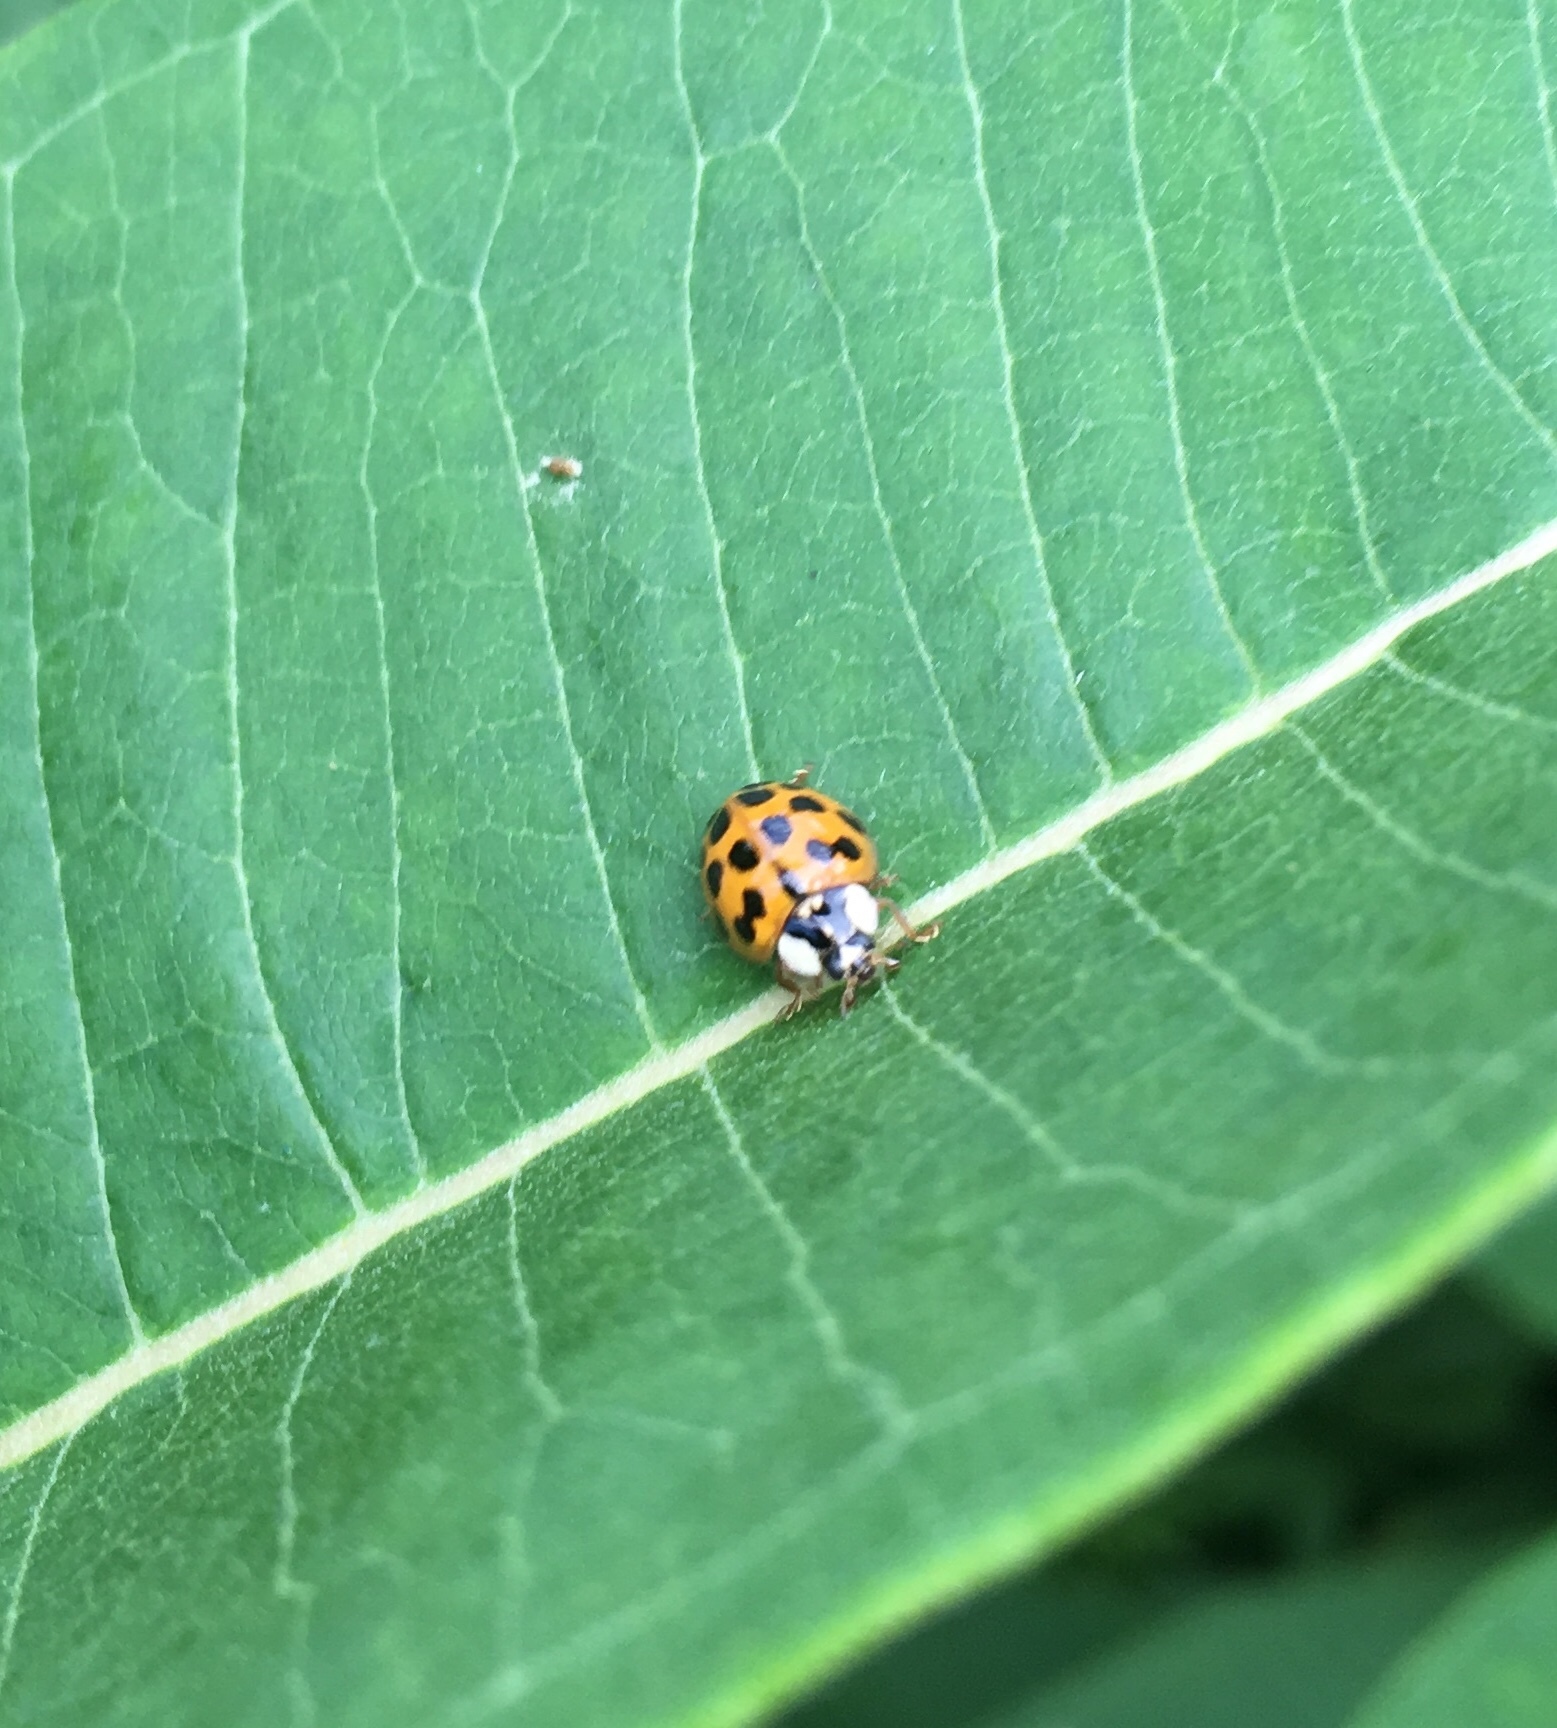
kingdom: Animalia
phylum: Arthropoda
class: Insecta
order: Coleoptera
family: Coccinellidae
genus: Harmonia
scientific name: Harmonia axyridis
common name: Harlequin ladybird
